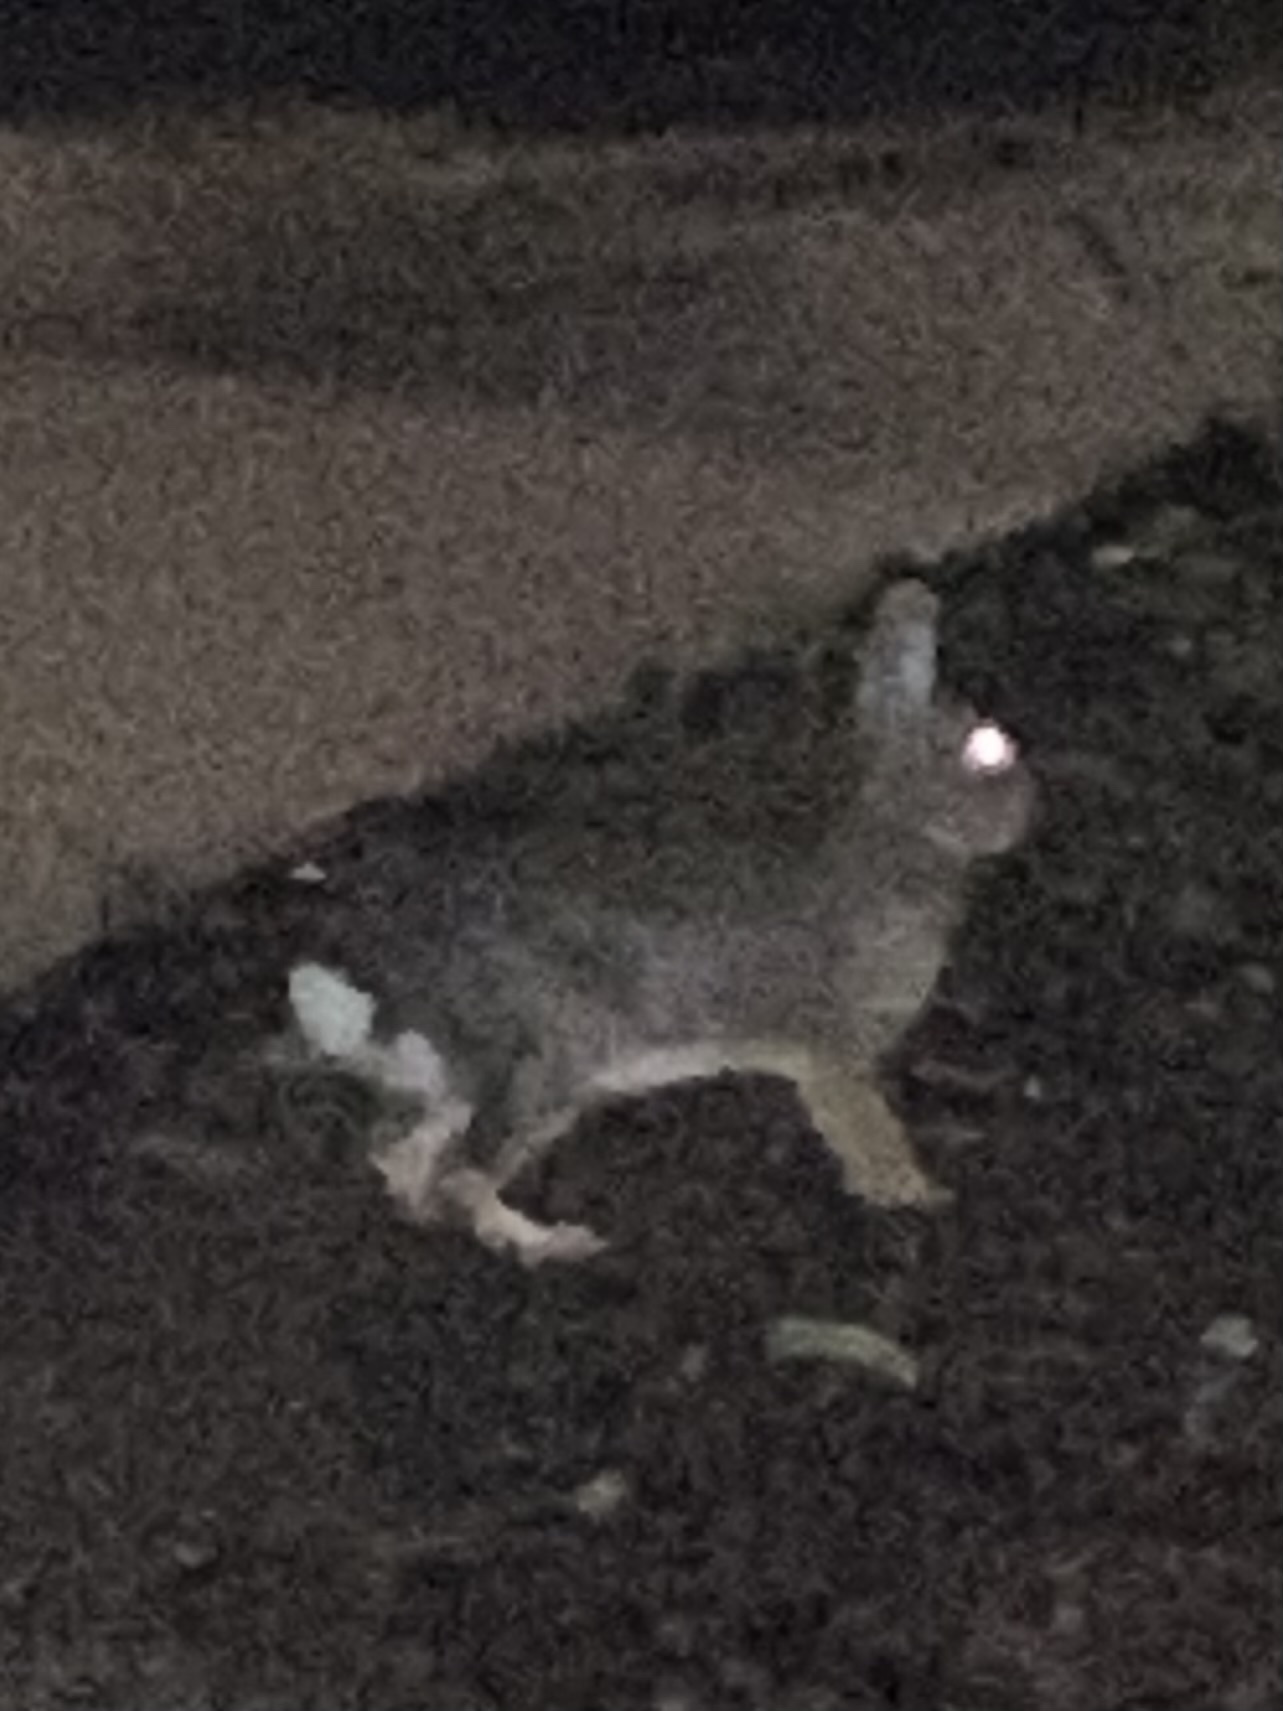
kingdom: Animalia
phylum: Chordata
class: Mammalia
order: Lagomorpha
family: Leporidae
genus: Sylvilagus
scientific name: Sylvilagus floridanus
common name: Eastern cottontail
